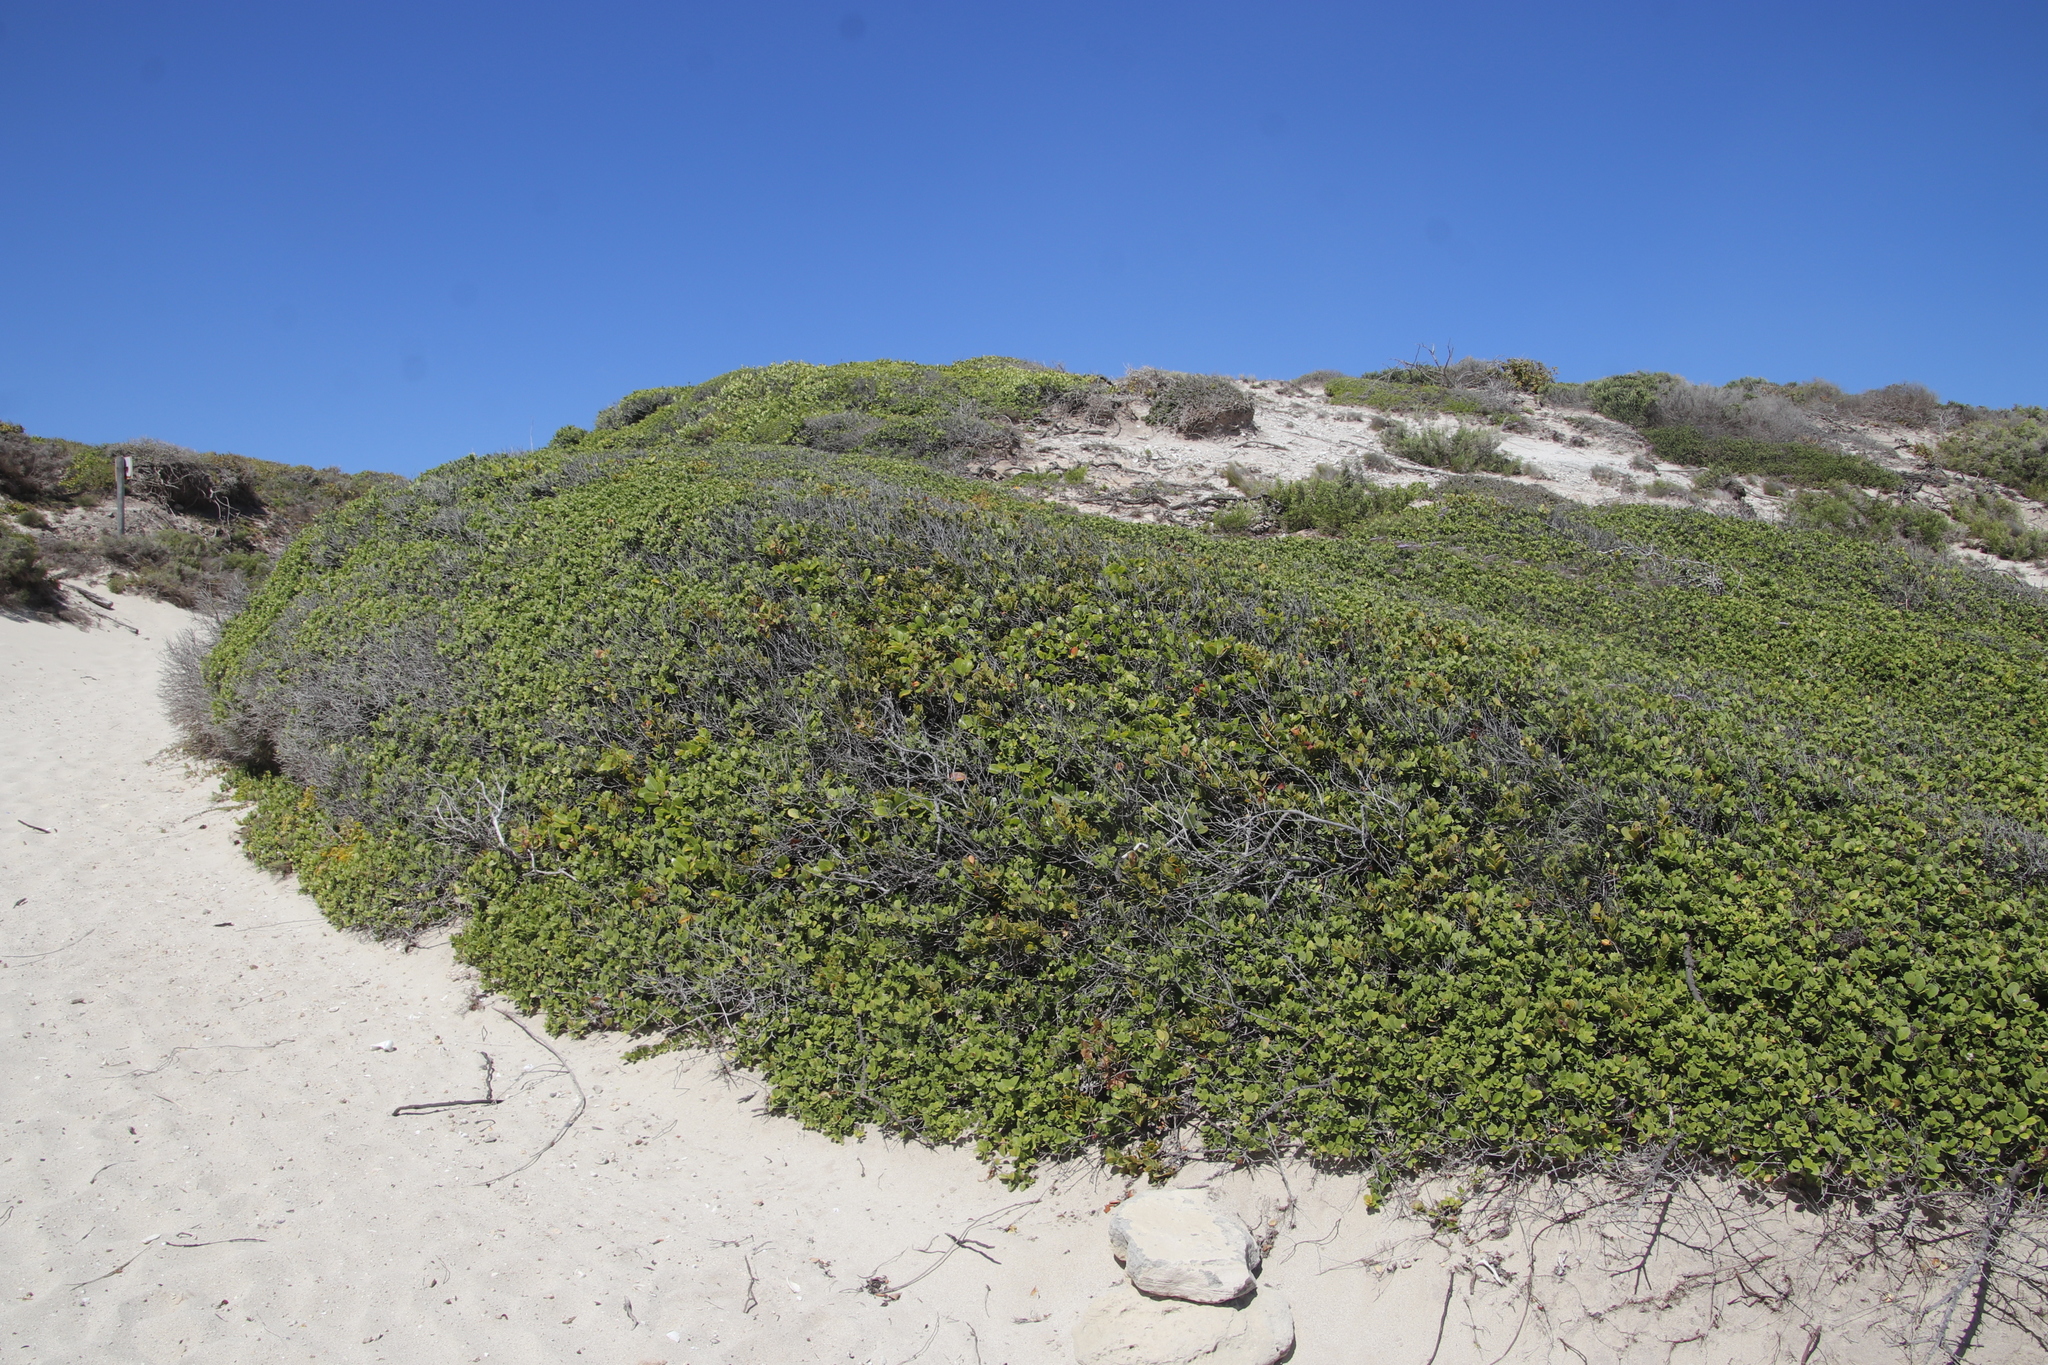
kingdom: Plantae
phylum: Tracheophyta
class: Magnoliopsida
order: Santalales
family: Santalaceae
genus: Osyris
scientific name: Osyris compressa
